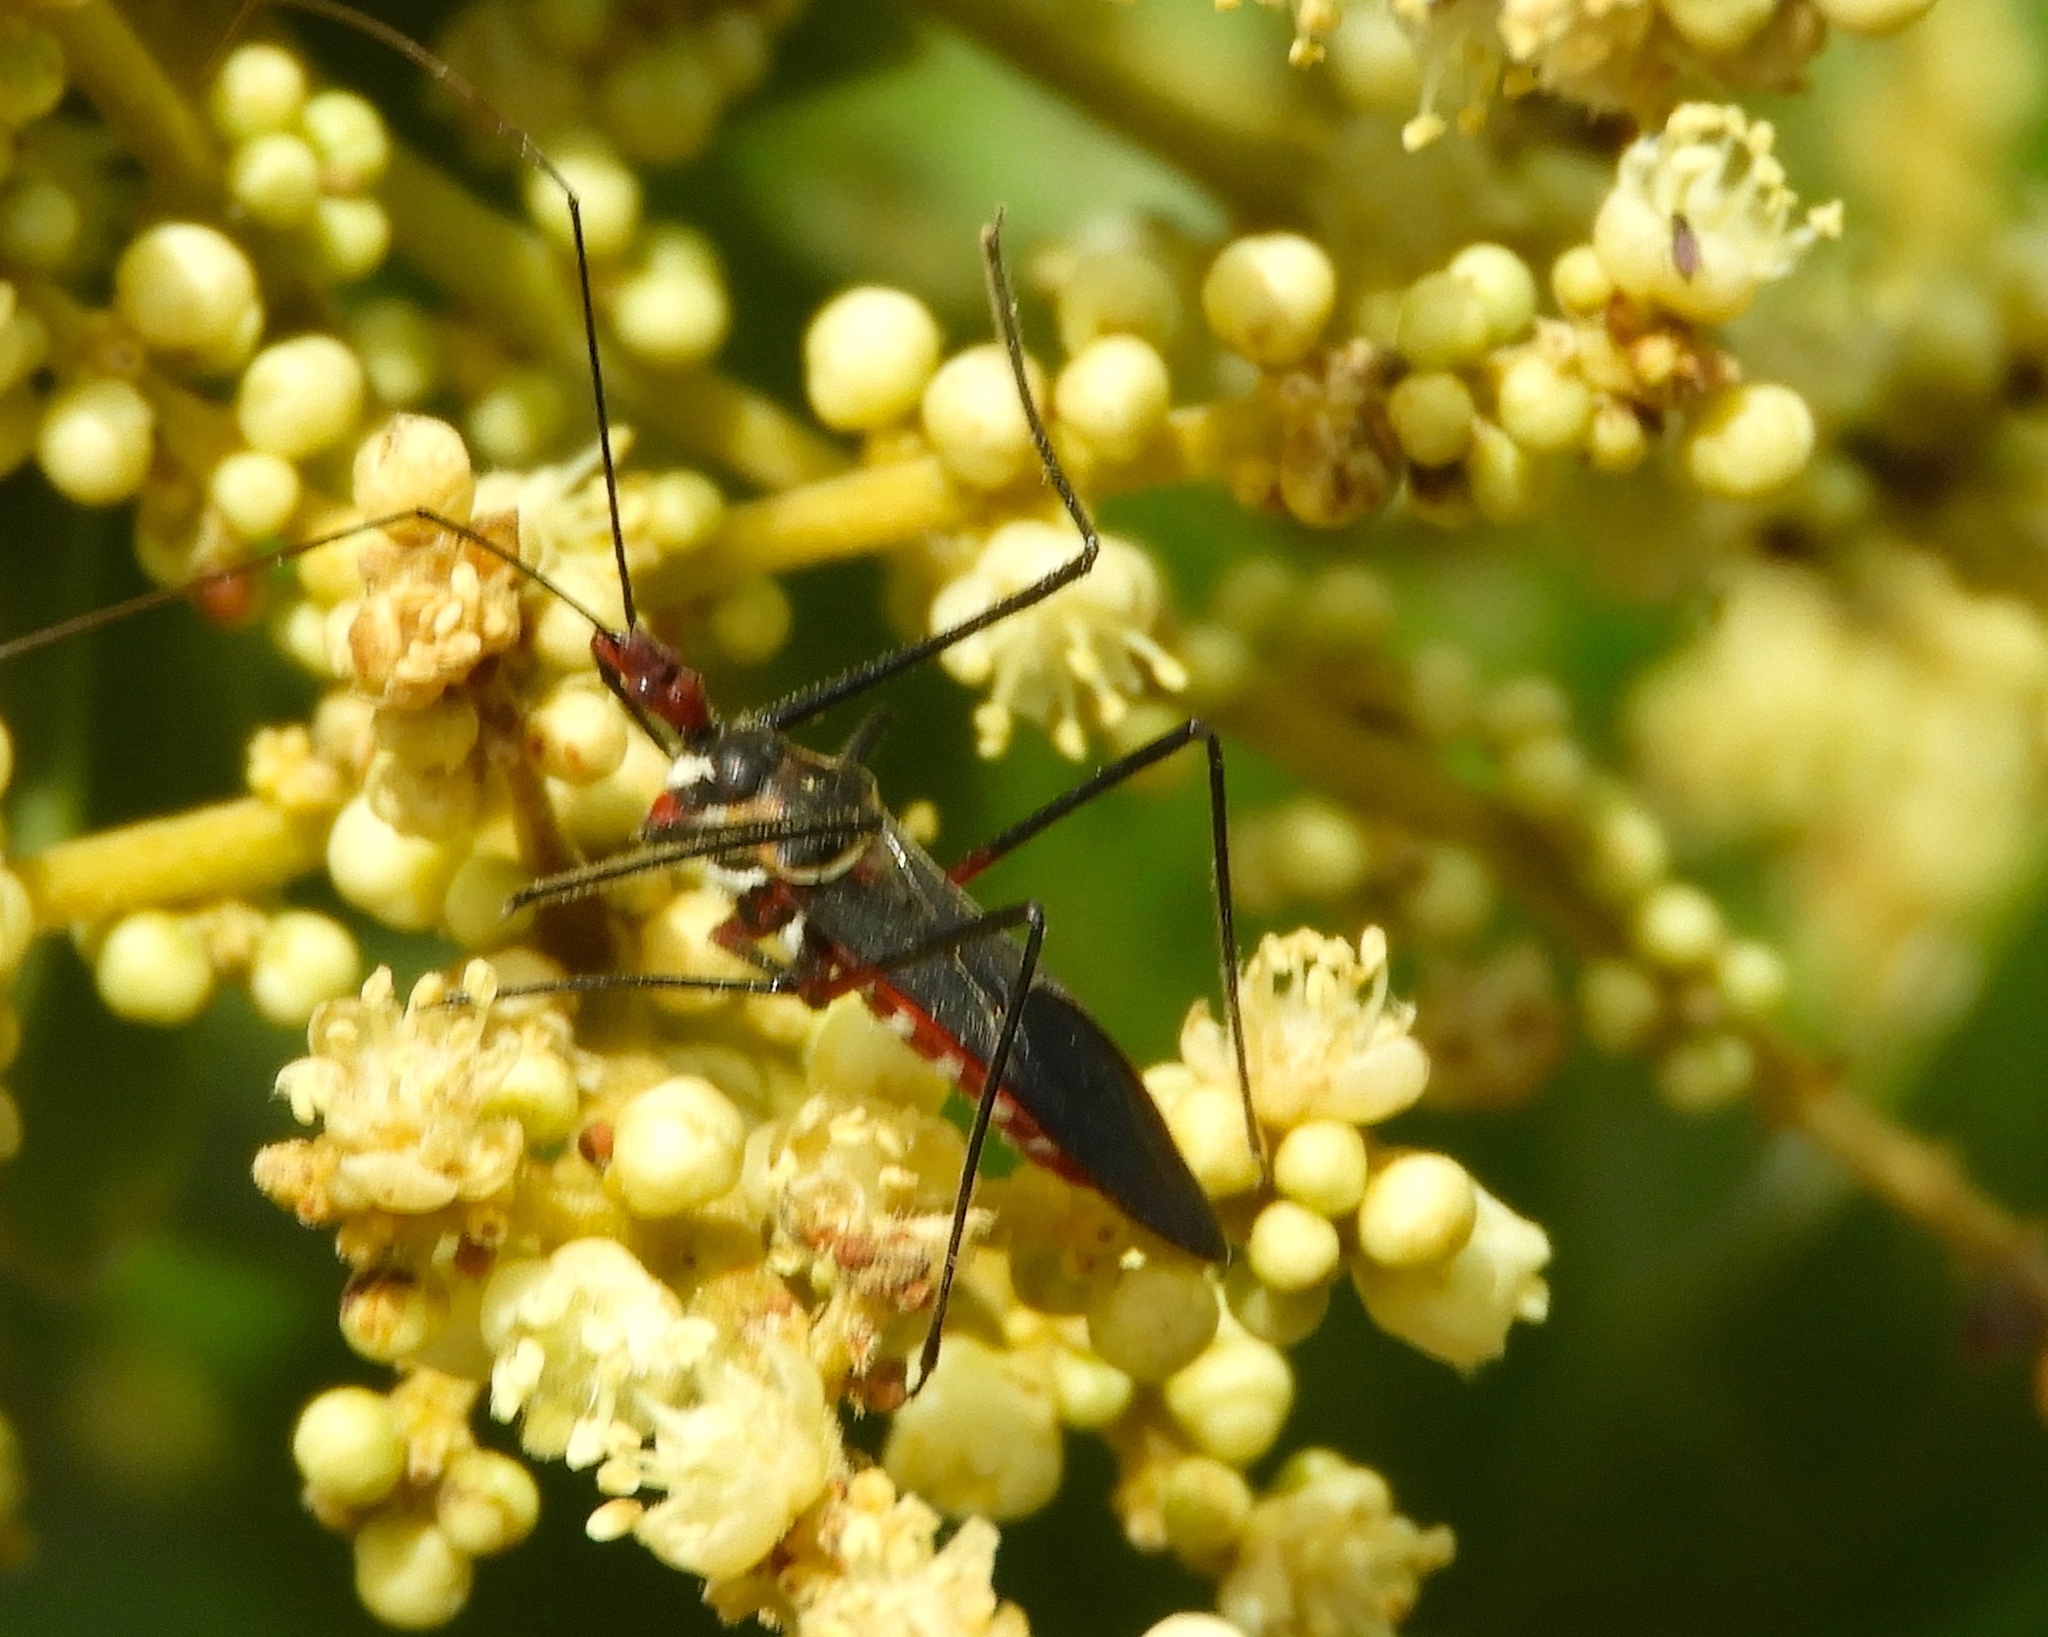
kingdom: Animalia
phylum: Arthropoda
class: Insecta
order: Hemiptera
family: Reduviidae
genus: Zelus
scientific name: Zelus grassans
